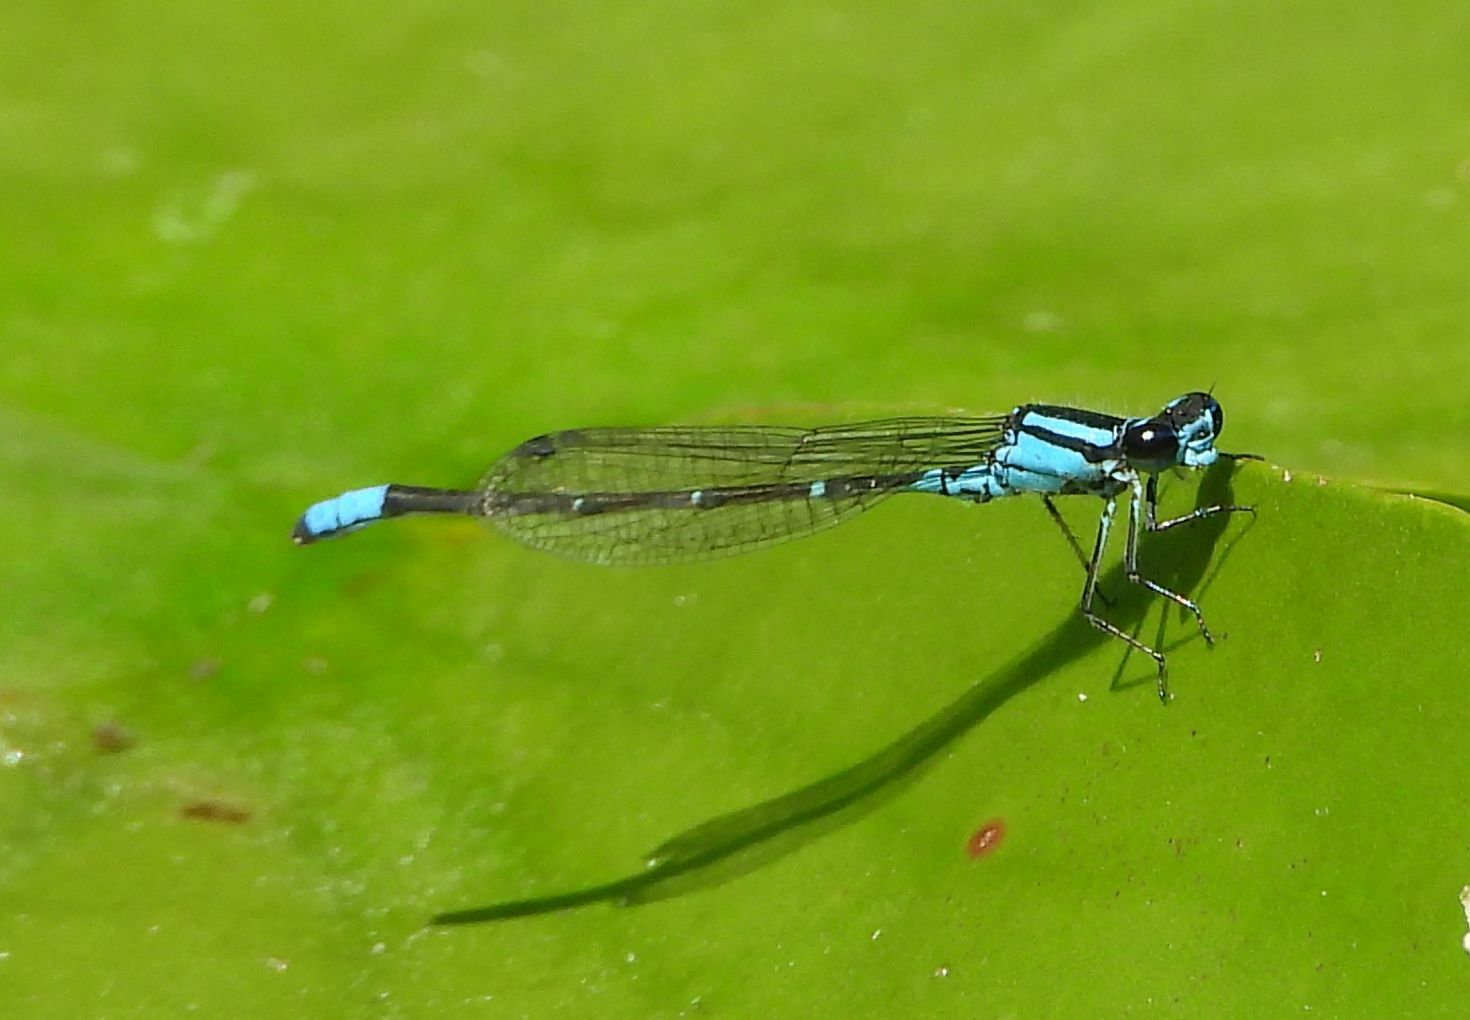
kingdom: Animalia
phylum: Arthropoda
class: Insecta
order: Odonata
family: Coenagrionidae
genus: Enallagma
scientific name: Enallagma geminatum
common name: Skimming bluet
